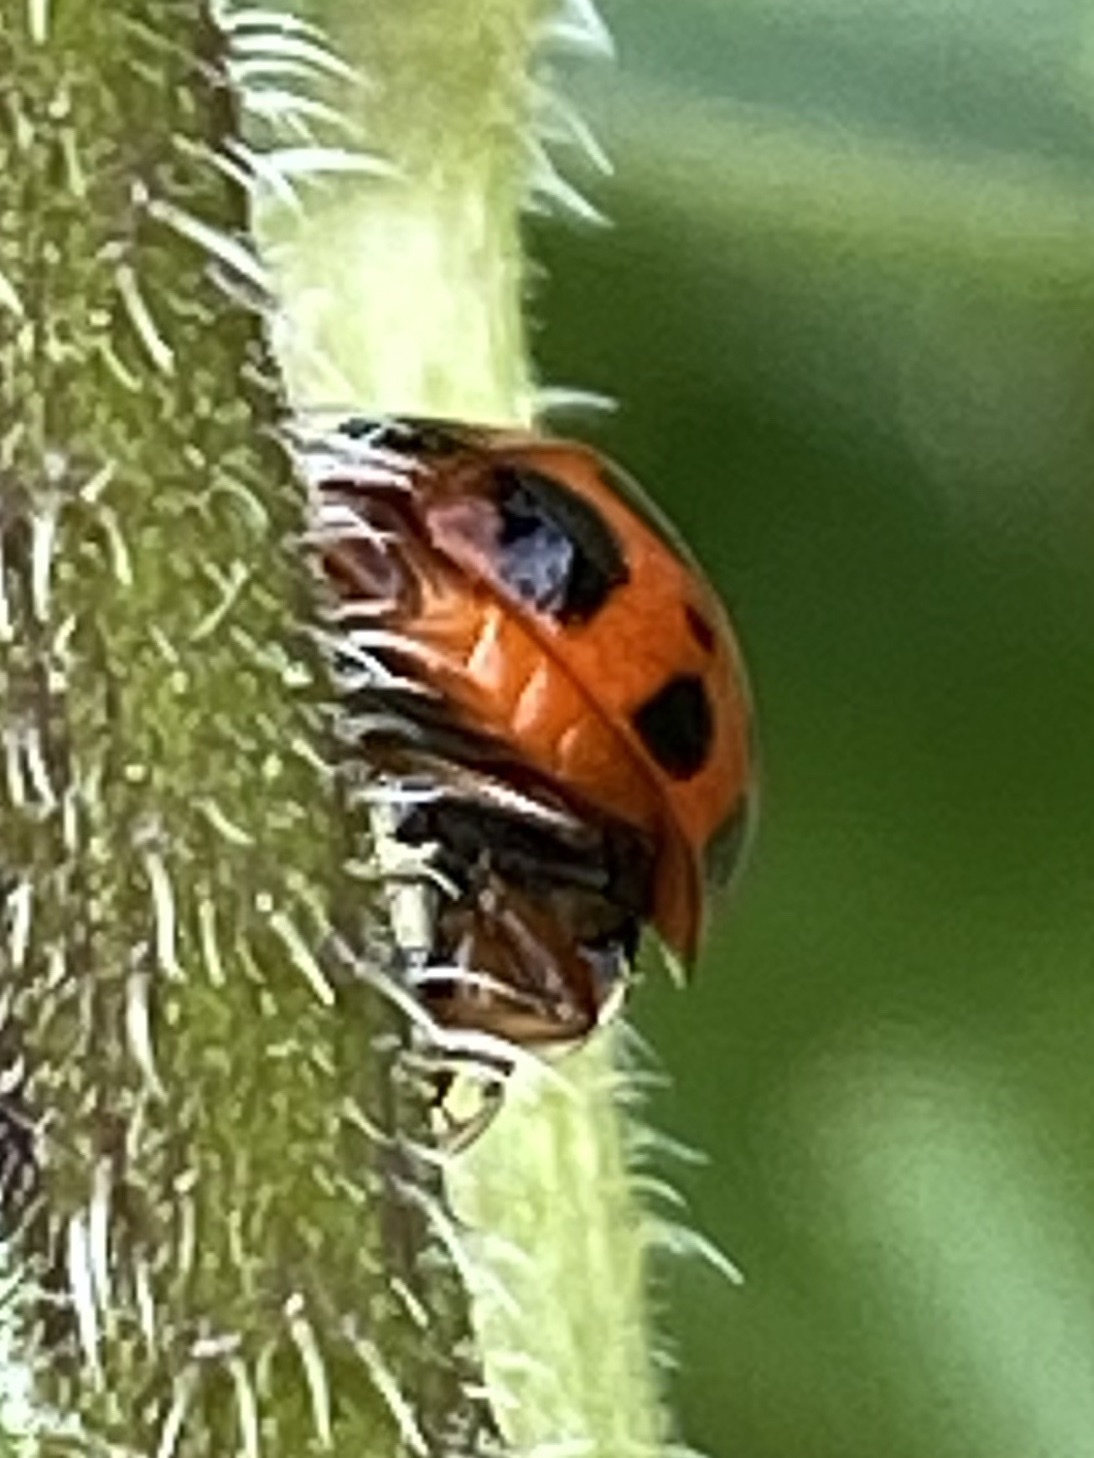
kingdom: Animalia
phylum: Arthropoda
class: Insecta
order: Coleoptera
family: Coccinellidae
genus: Harmonia
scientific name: Harmonia axyridis
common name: Harlequin ladybird
